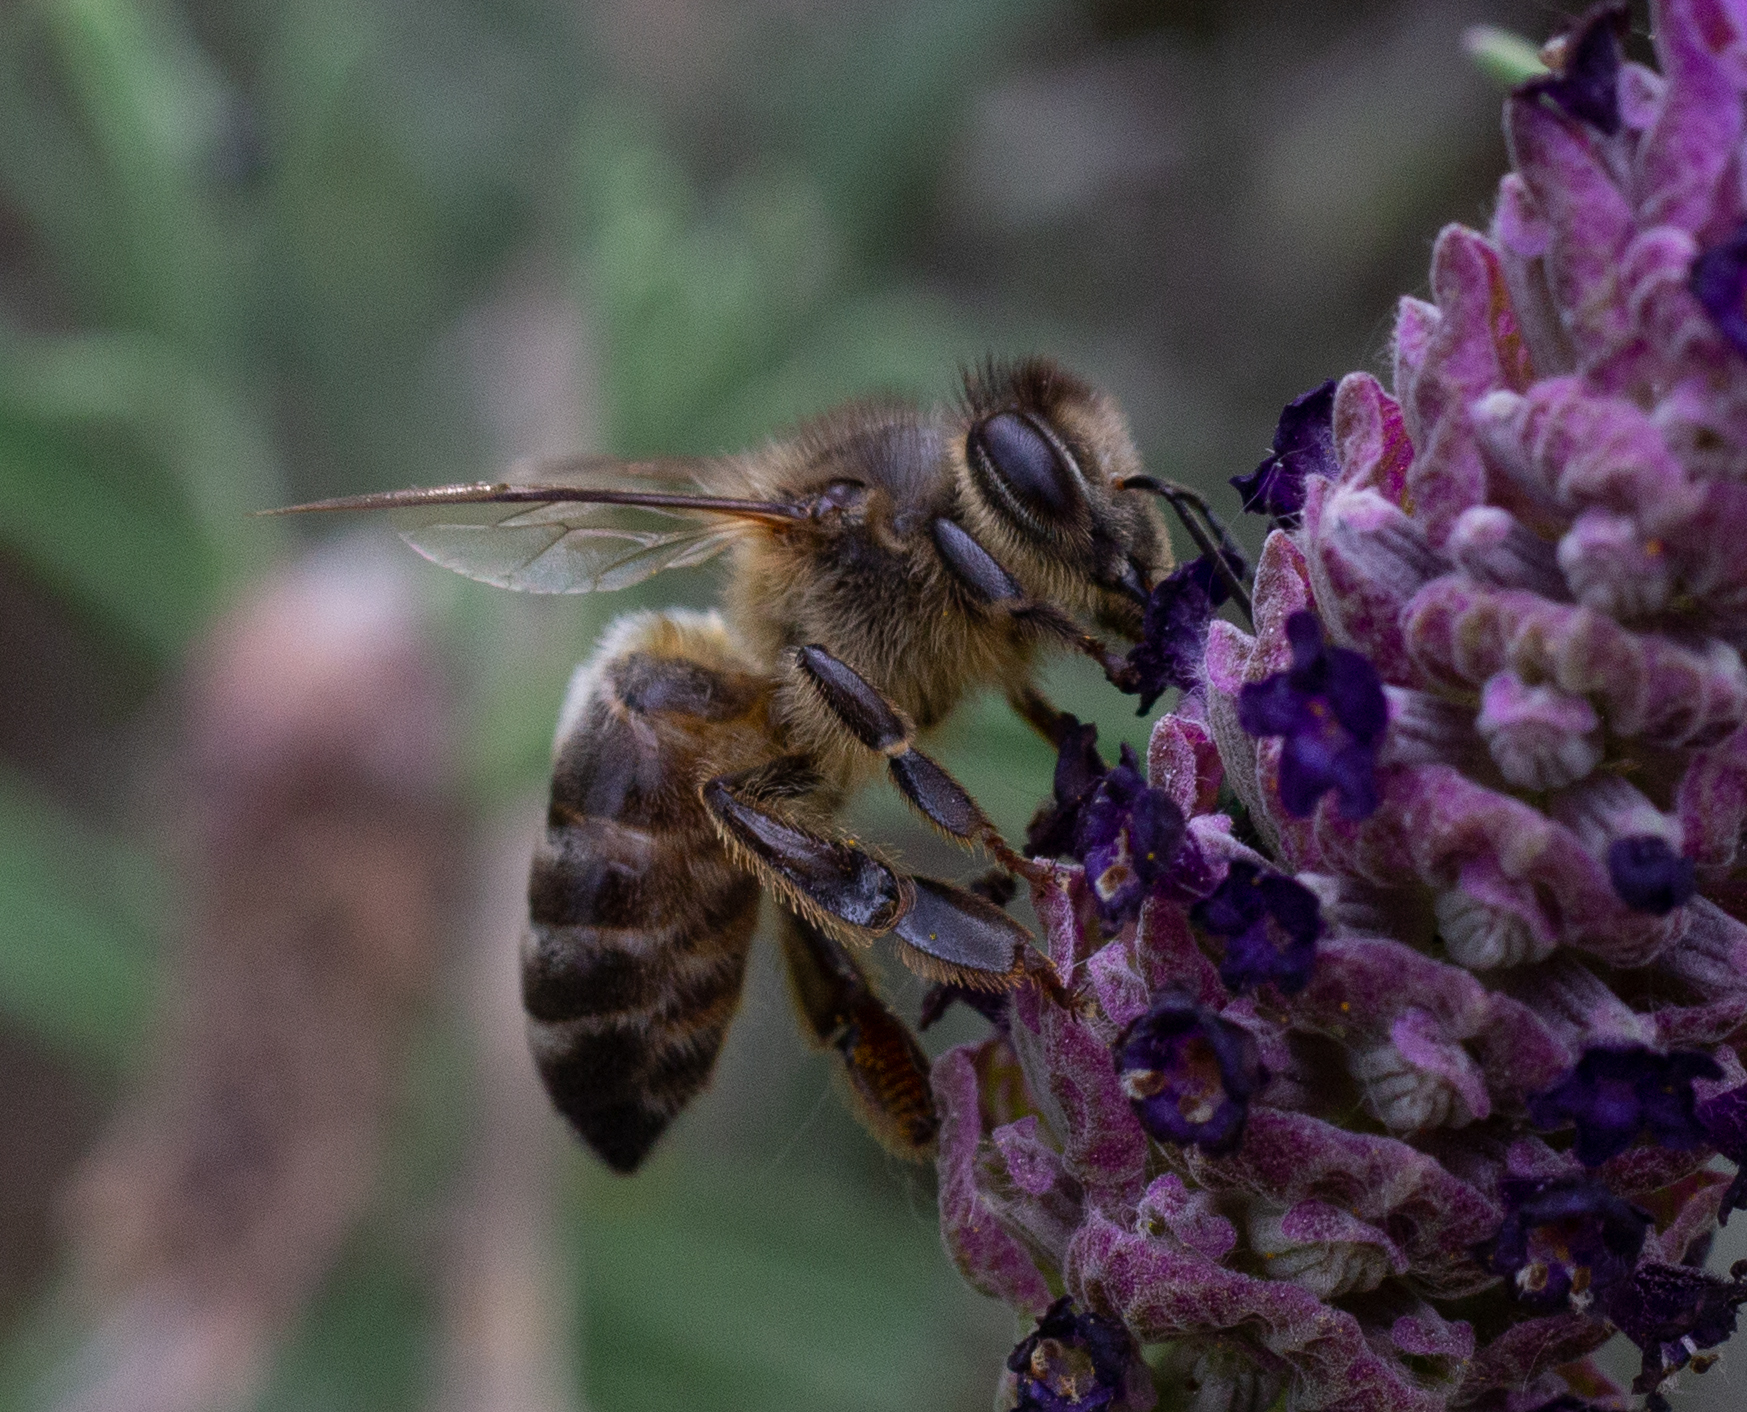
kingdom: Animalia
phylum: Arthropoda
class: Insecta
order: Hymenoptera
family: Apidae
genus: Apis
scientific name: Apis mellifera
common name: Honey bee
